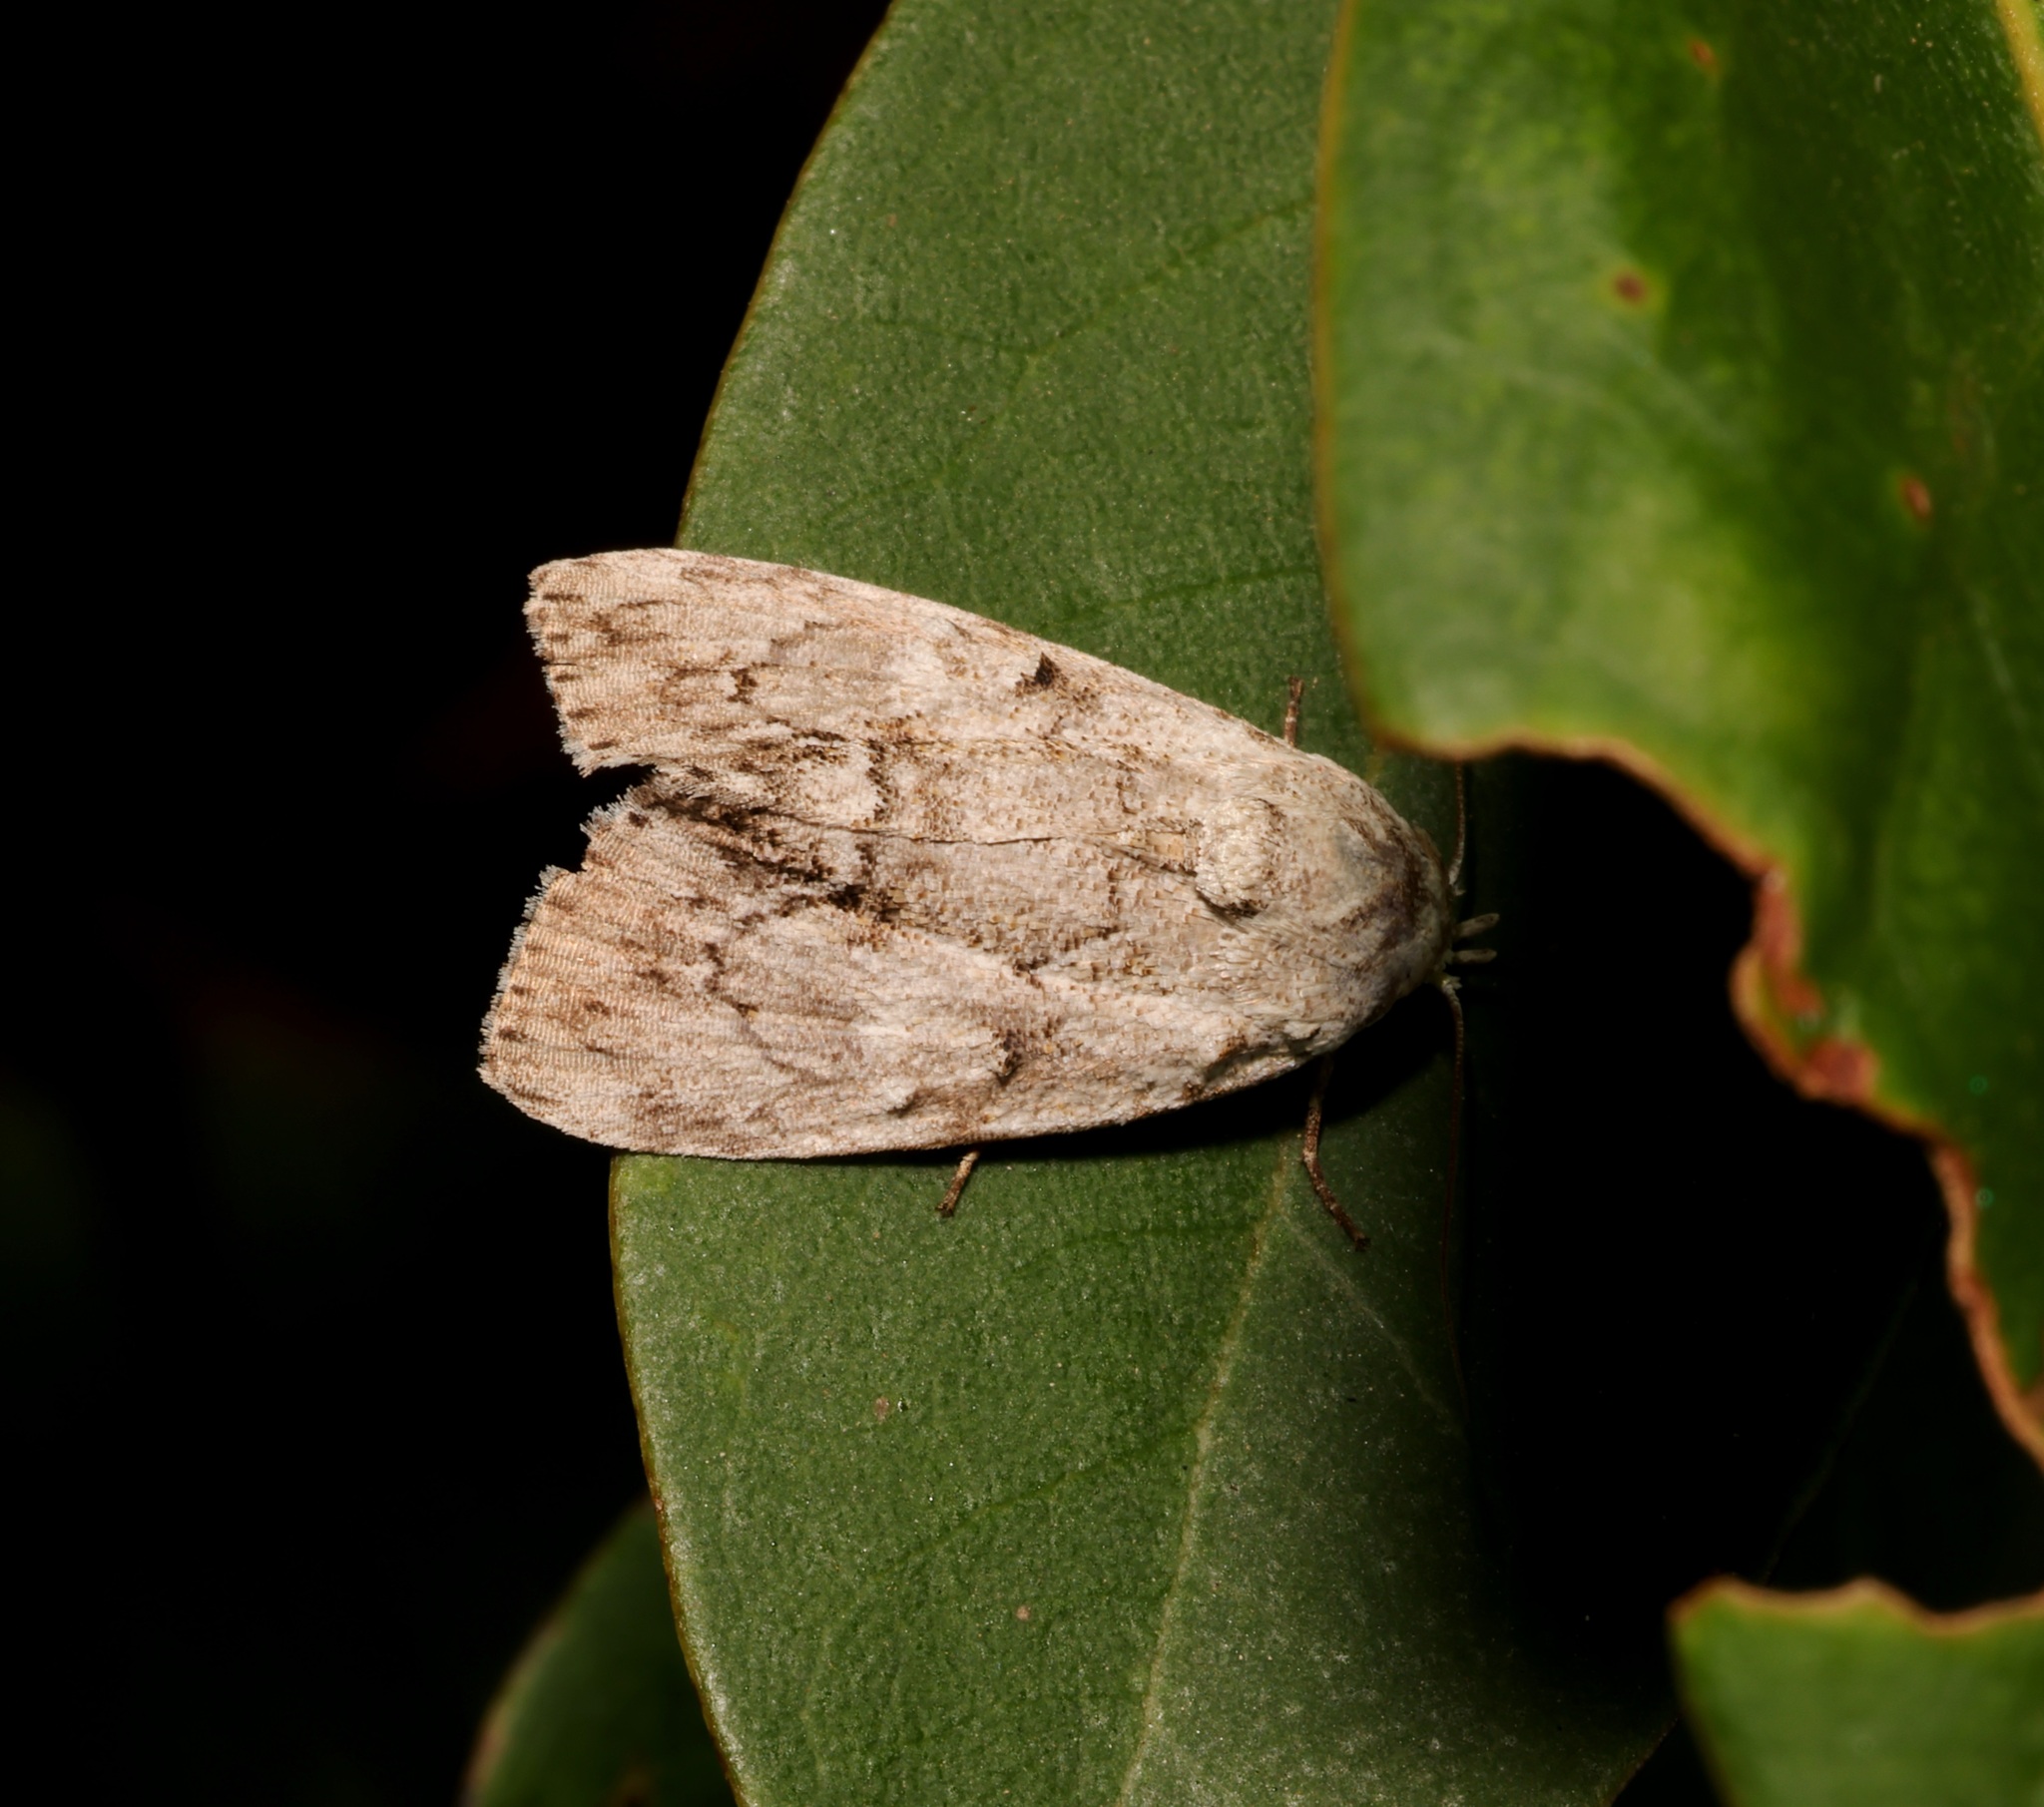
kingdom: Animalia
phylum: Arthropoda
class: Insecta
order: Lepidoptera
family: Nolidae
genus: Barasa
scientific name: Barasa acronyctoides
